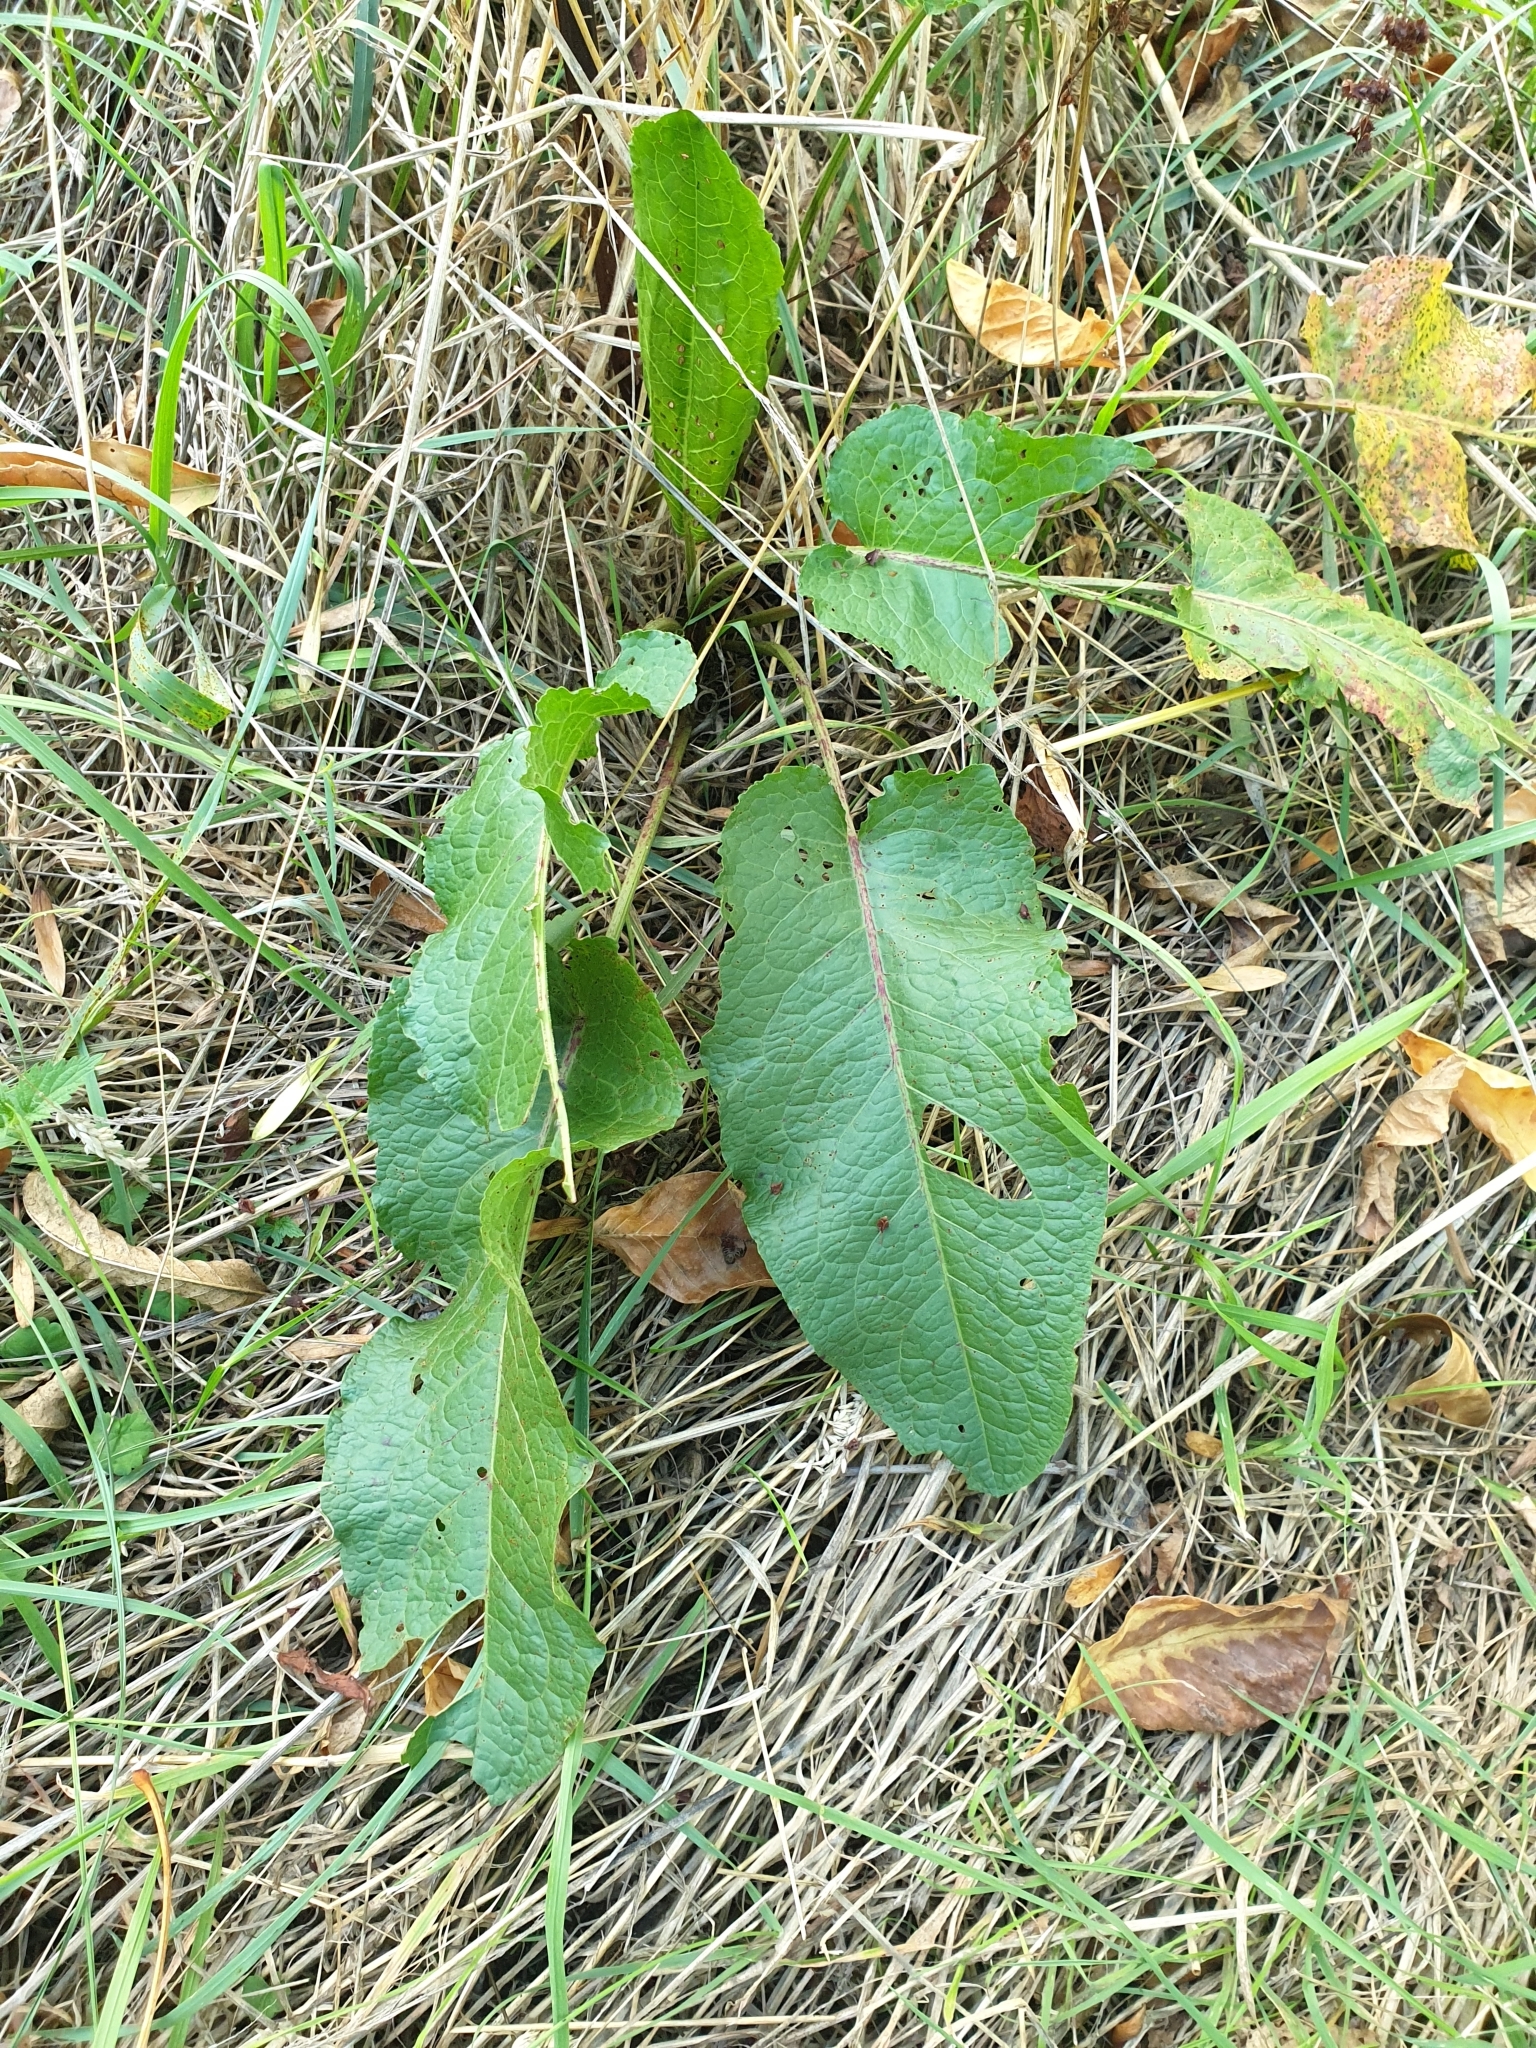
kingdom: Plantae
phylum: Tracheophyta
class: Magnoliopsida
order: Caryophyllales
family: Polygonaceae
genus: Rumex
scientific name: Rumex obtusifolius
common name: Bitter dock
